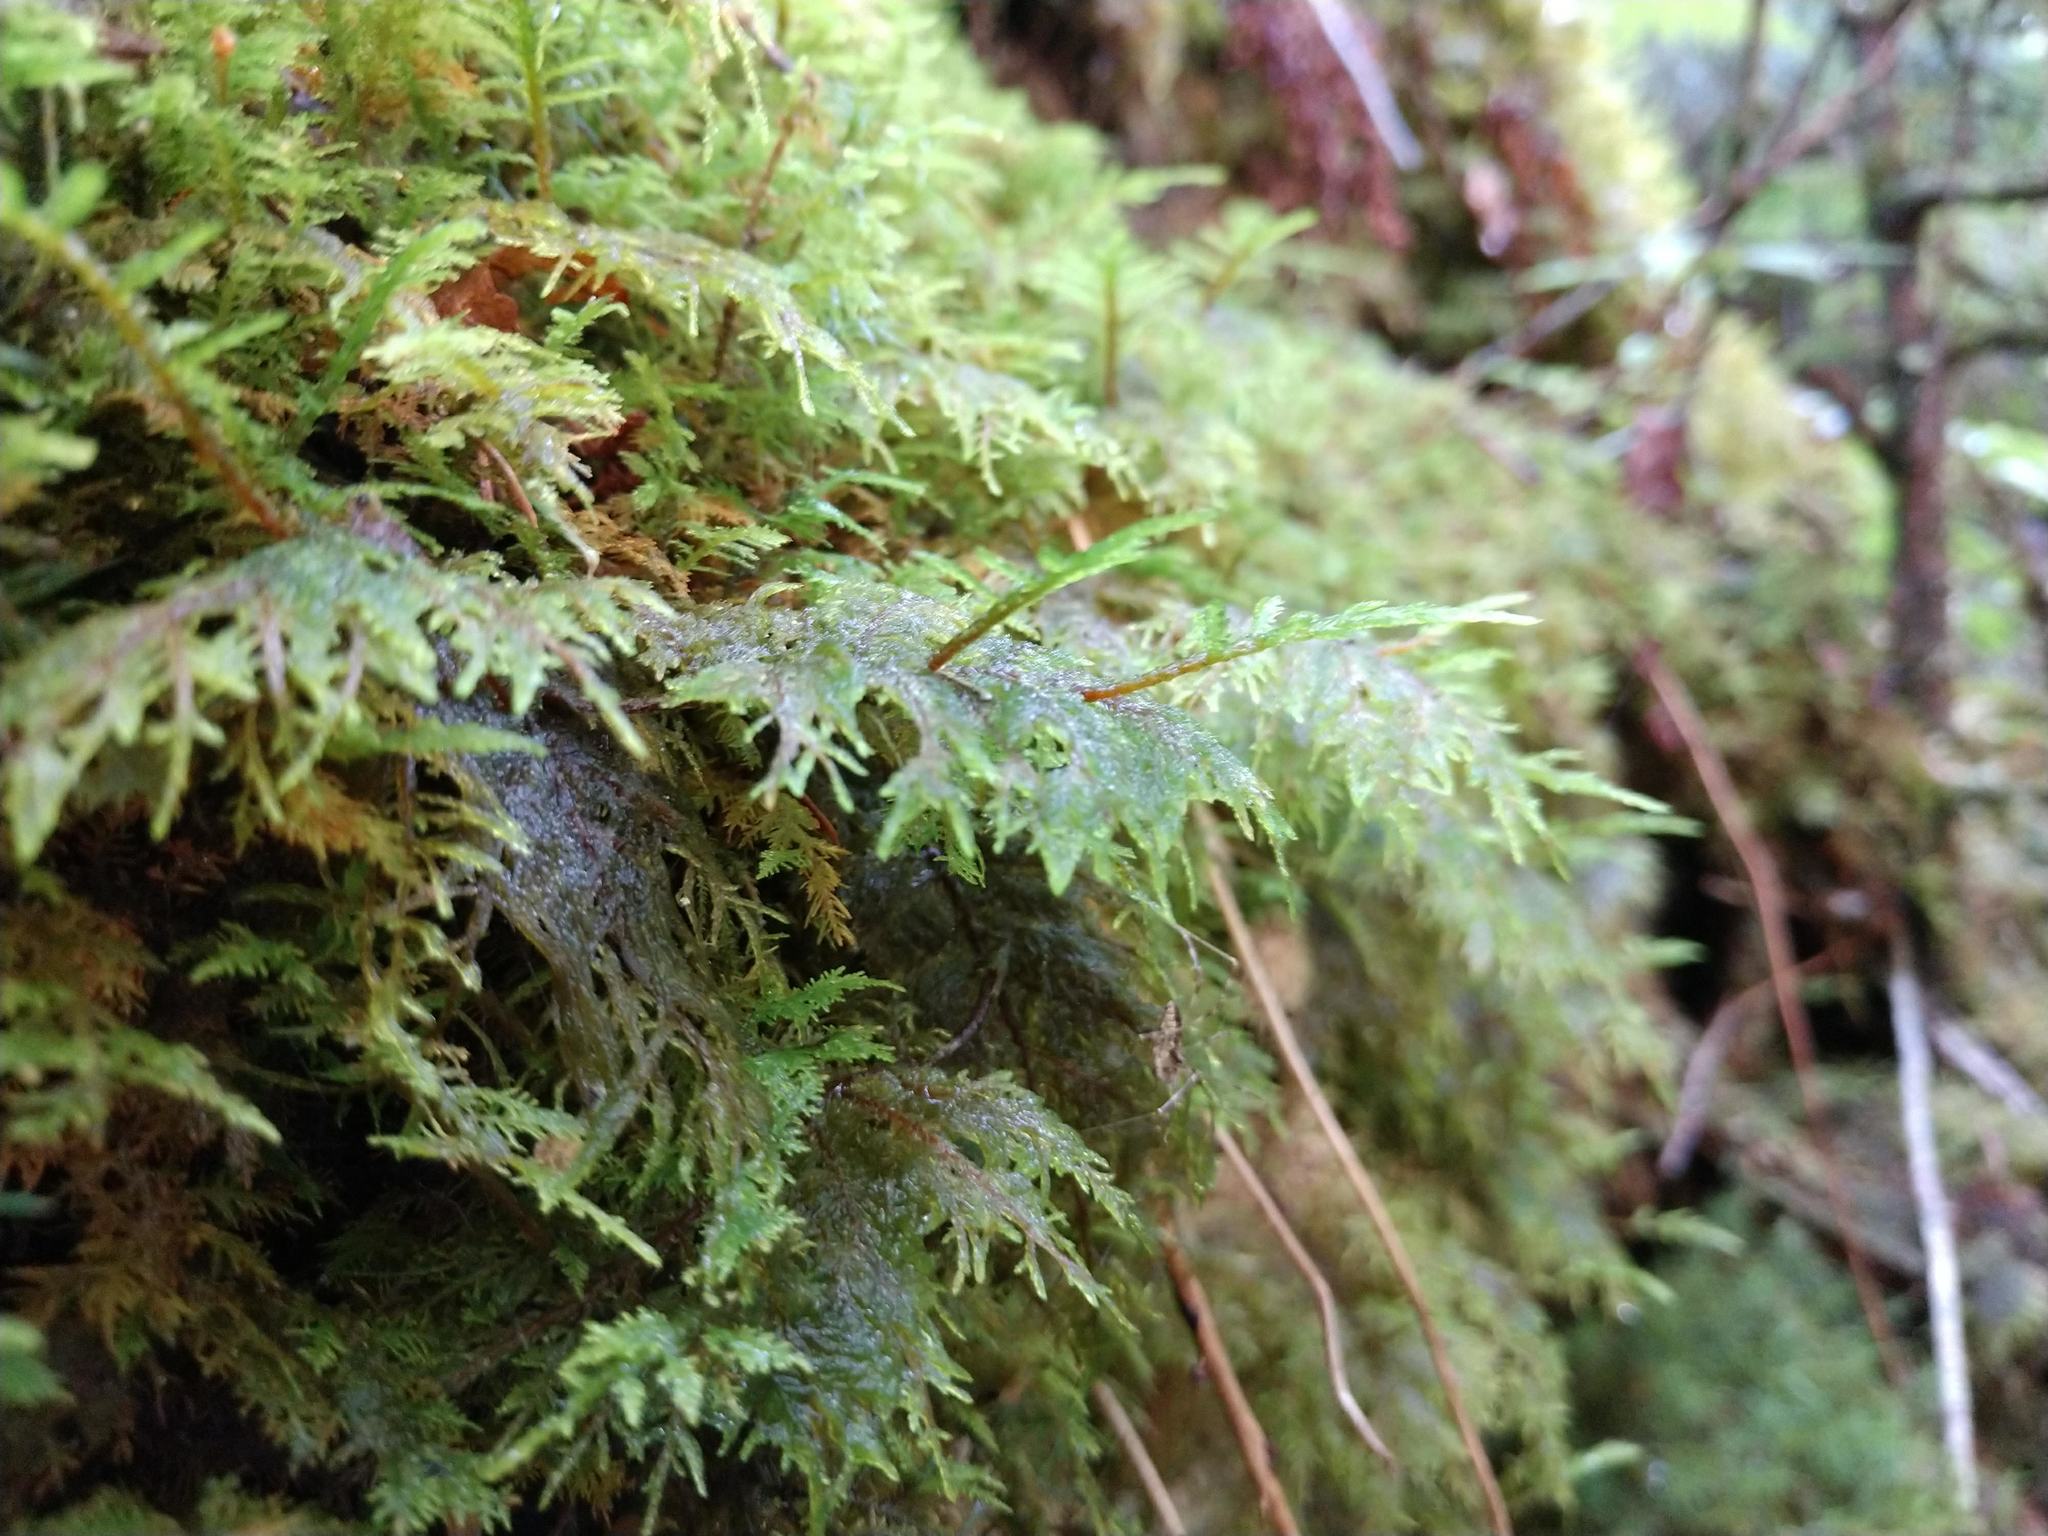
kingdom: Plantae
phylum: Bryophyta
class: Bryopsida
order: Hypnales
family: Hylocomiaceae
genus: Hylocomium
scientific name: Hylocomium splendens
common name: Stairstep moss
